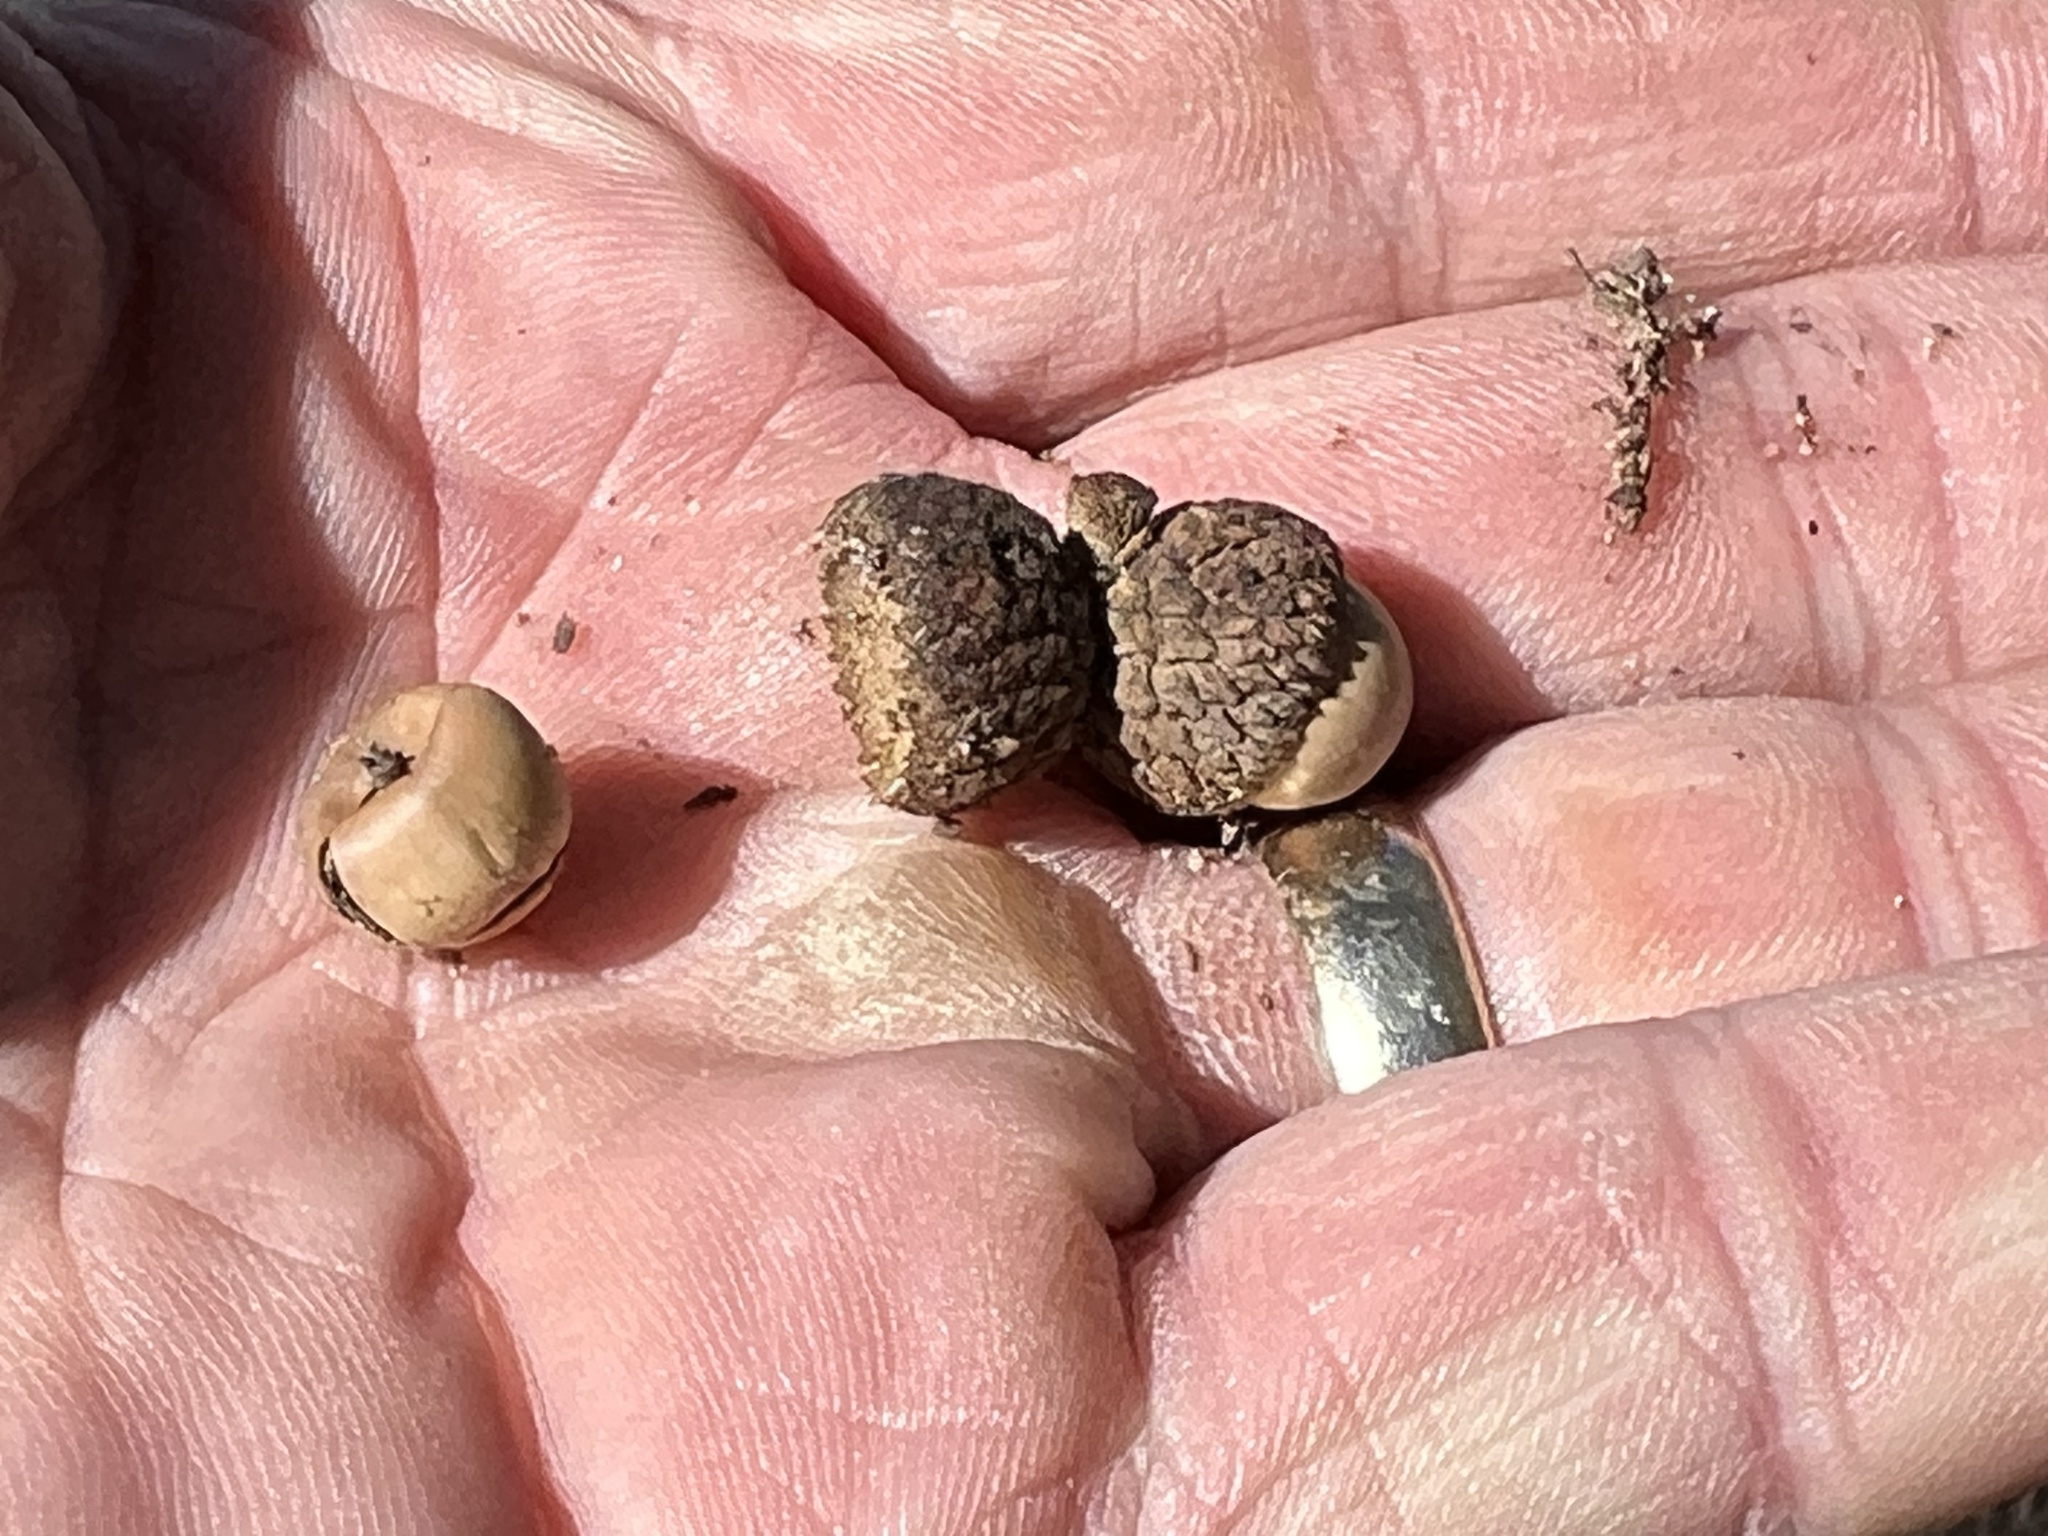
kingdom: Plantae
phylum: Tracheophyta
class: Magnoliopsida
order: Fagales
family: Fagaceae
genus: Quercus
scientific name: Quercus arizonica
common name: Arizona white oak
